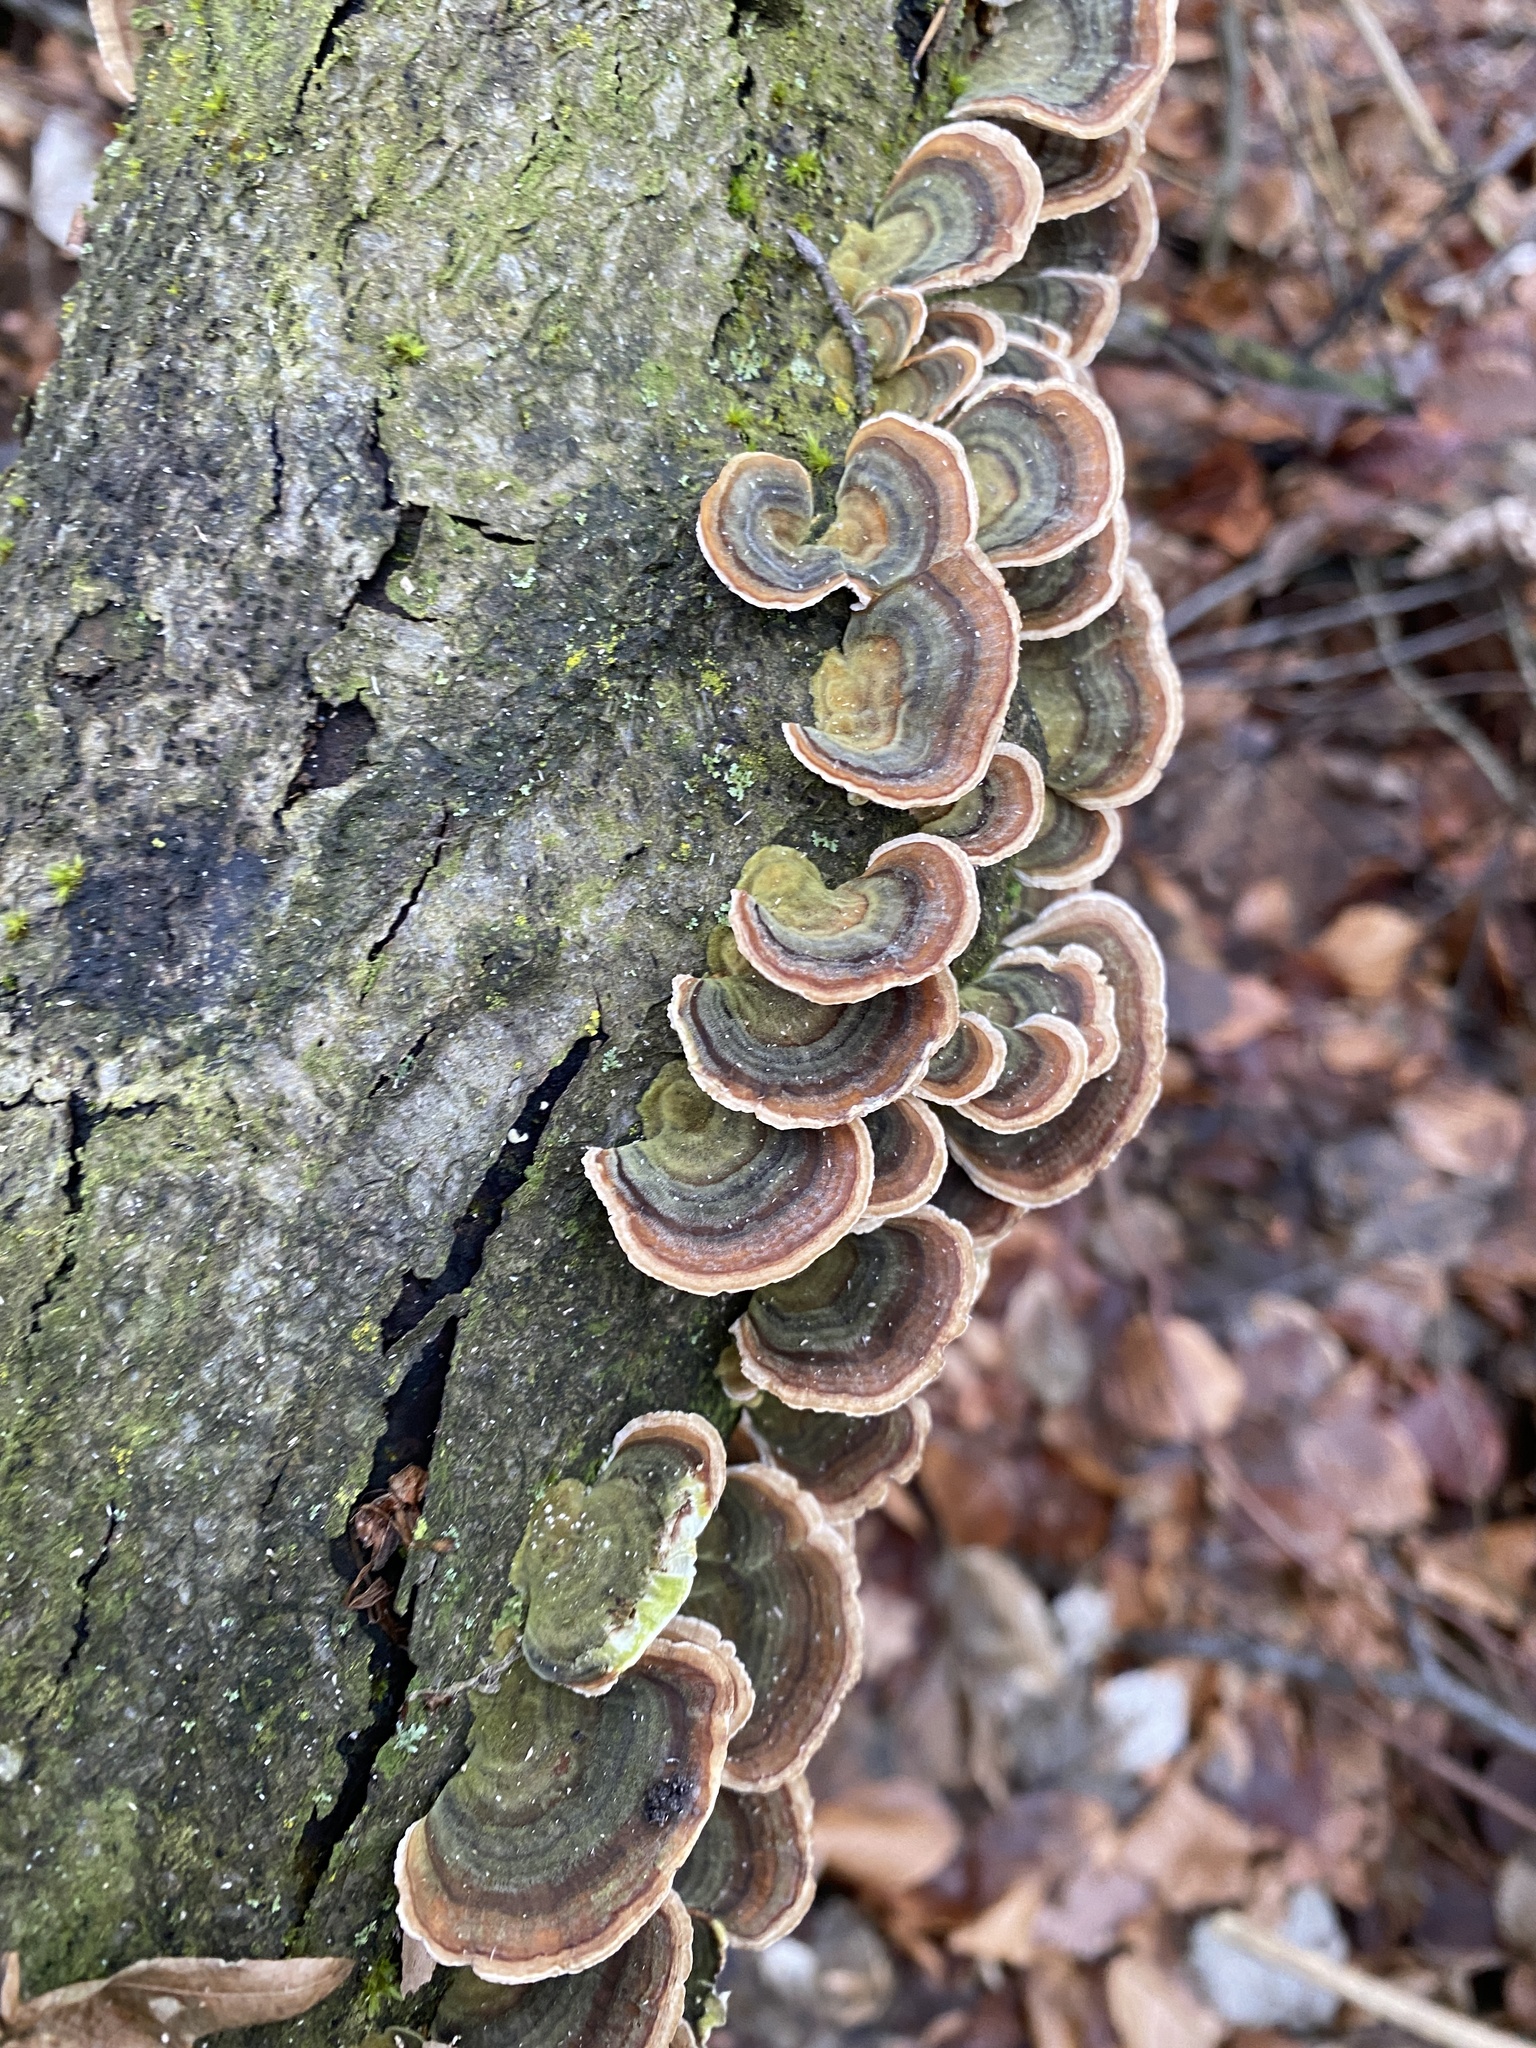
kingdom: Fungi
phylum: Basidiomycota
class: Agaricomycetes
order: Polyporales
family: Polyporaceae
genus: Trametes
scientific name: Trametes versicolor
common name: Turkeytail
